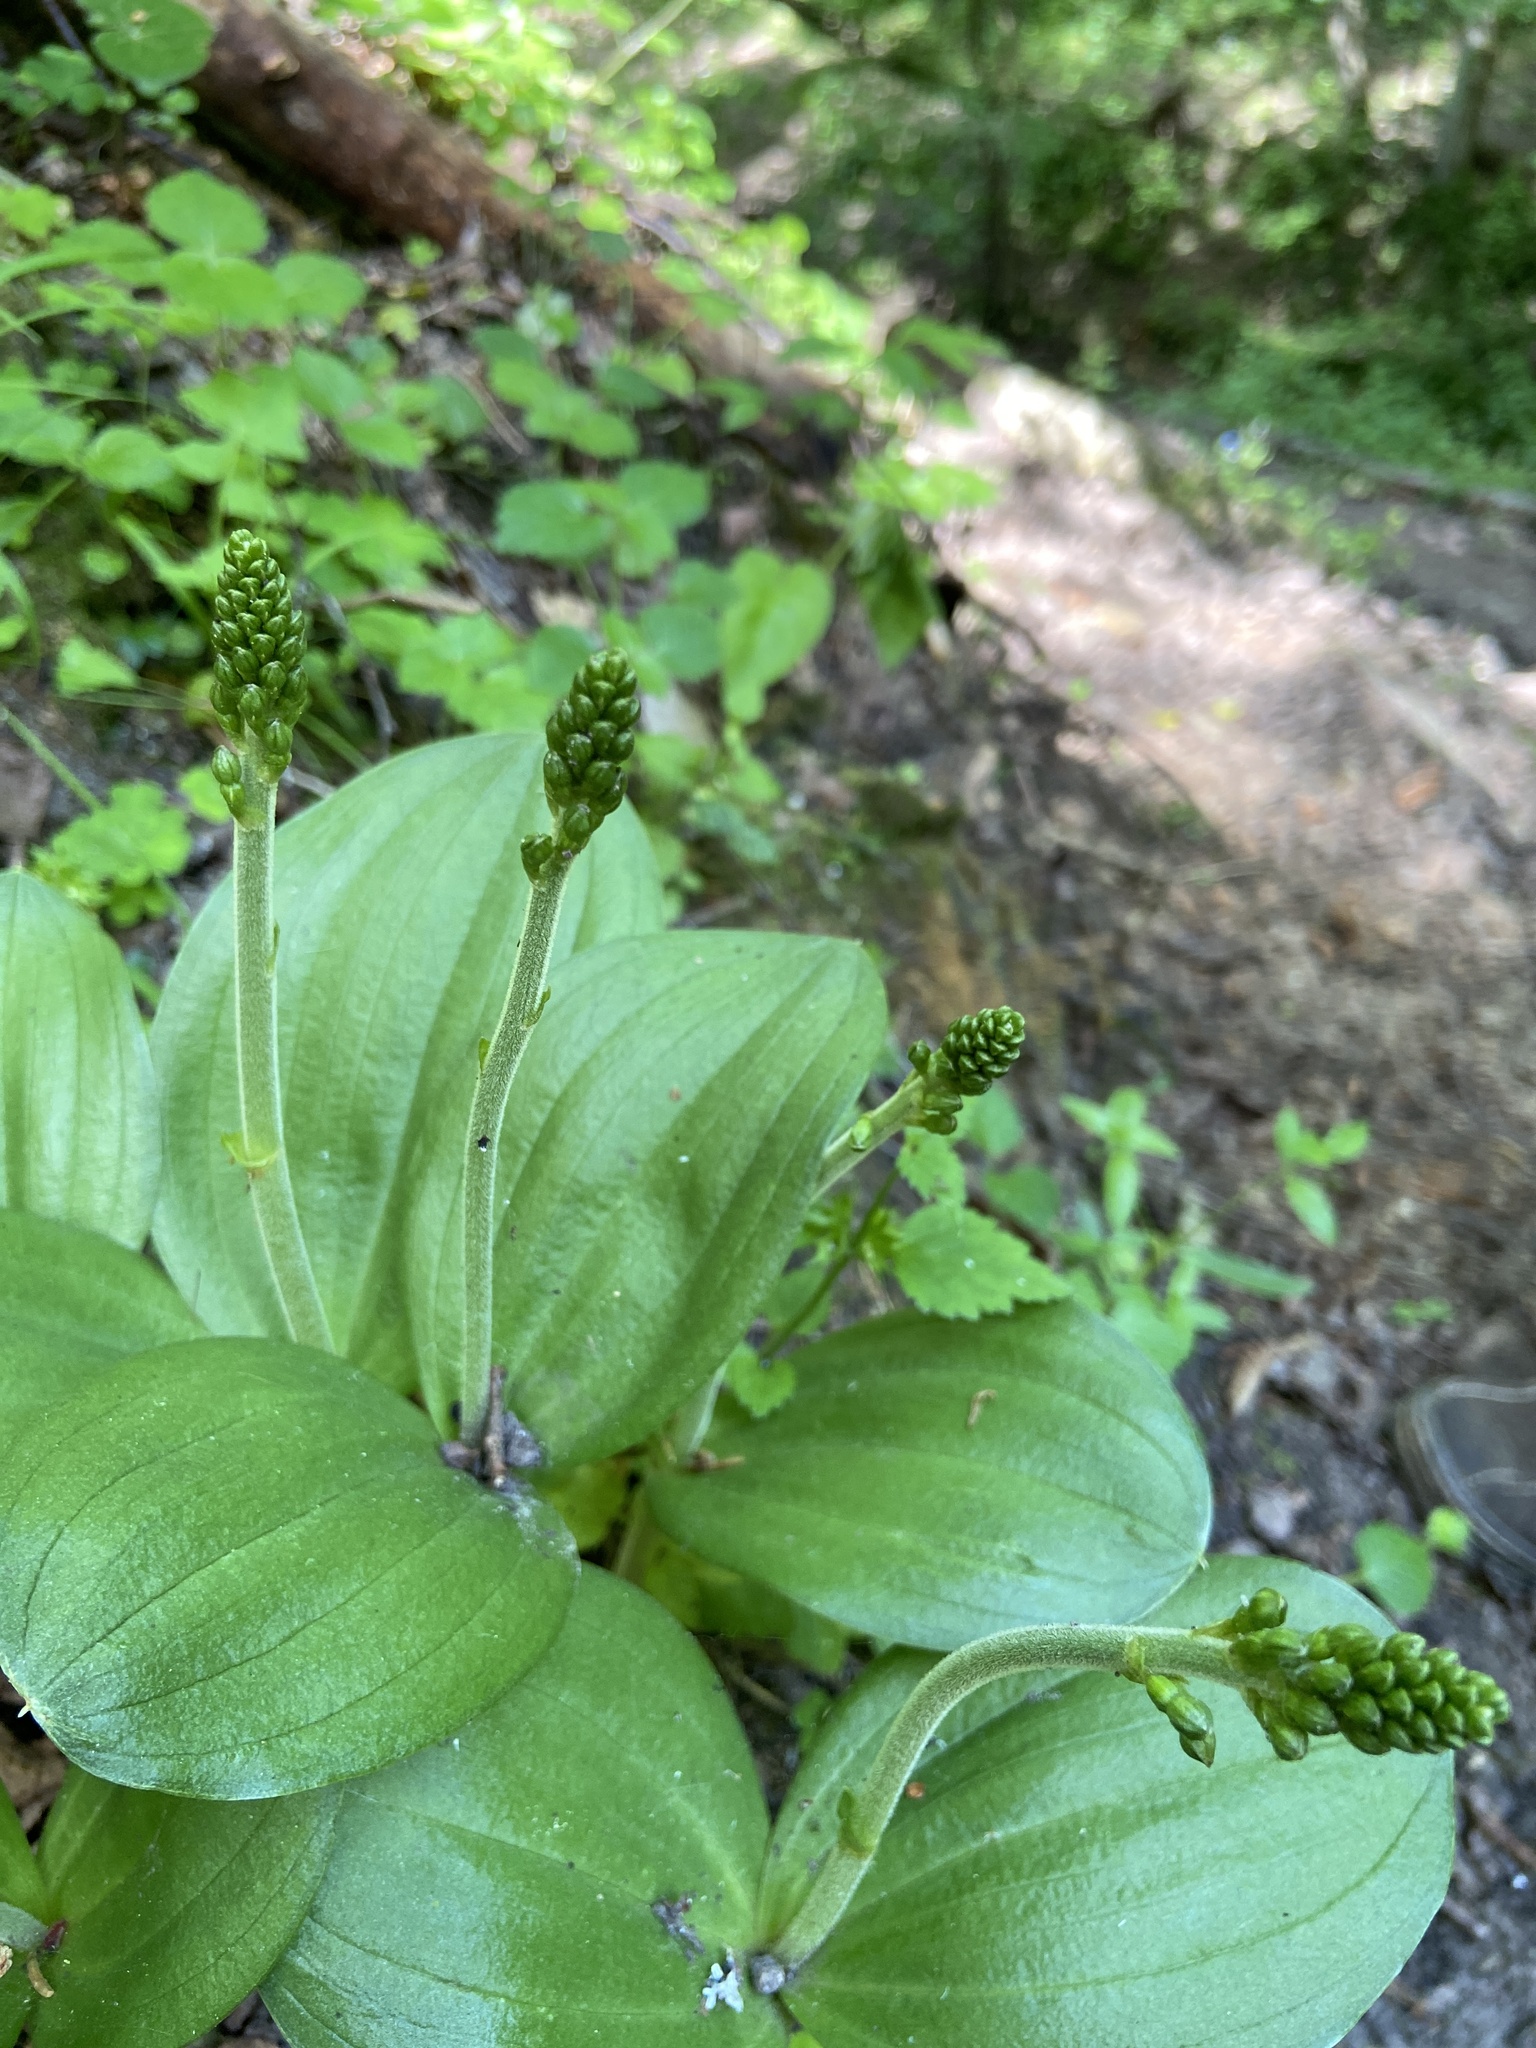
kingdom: Plantae
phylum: Tracheophyta
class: Liliopsida
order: Asparagales
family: Orchidaceae
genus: Neottia
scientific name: Neottia ovata
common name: Common twayblade
